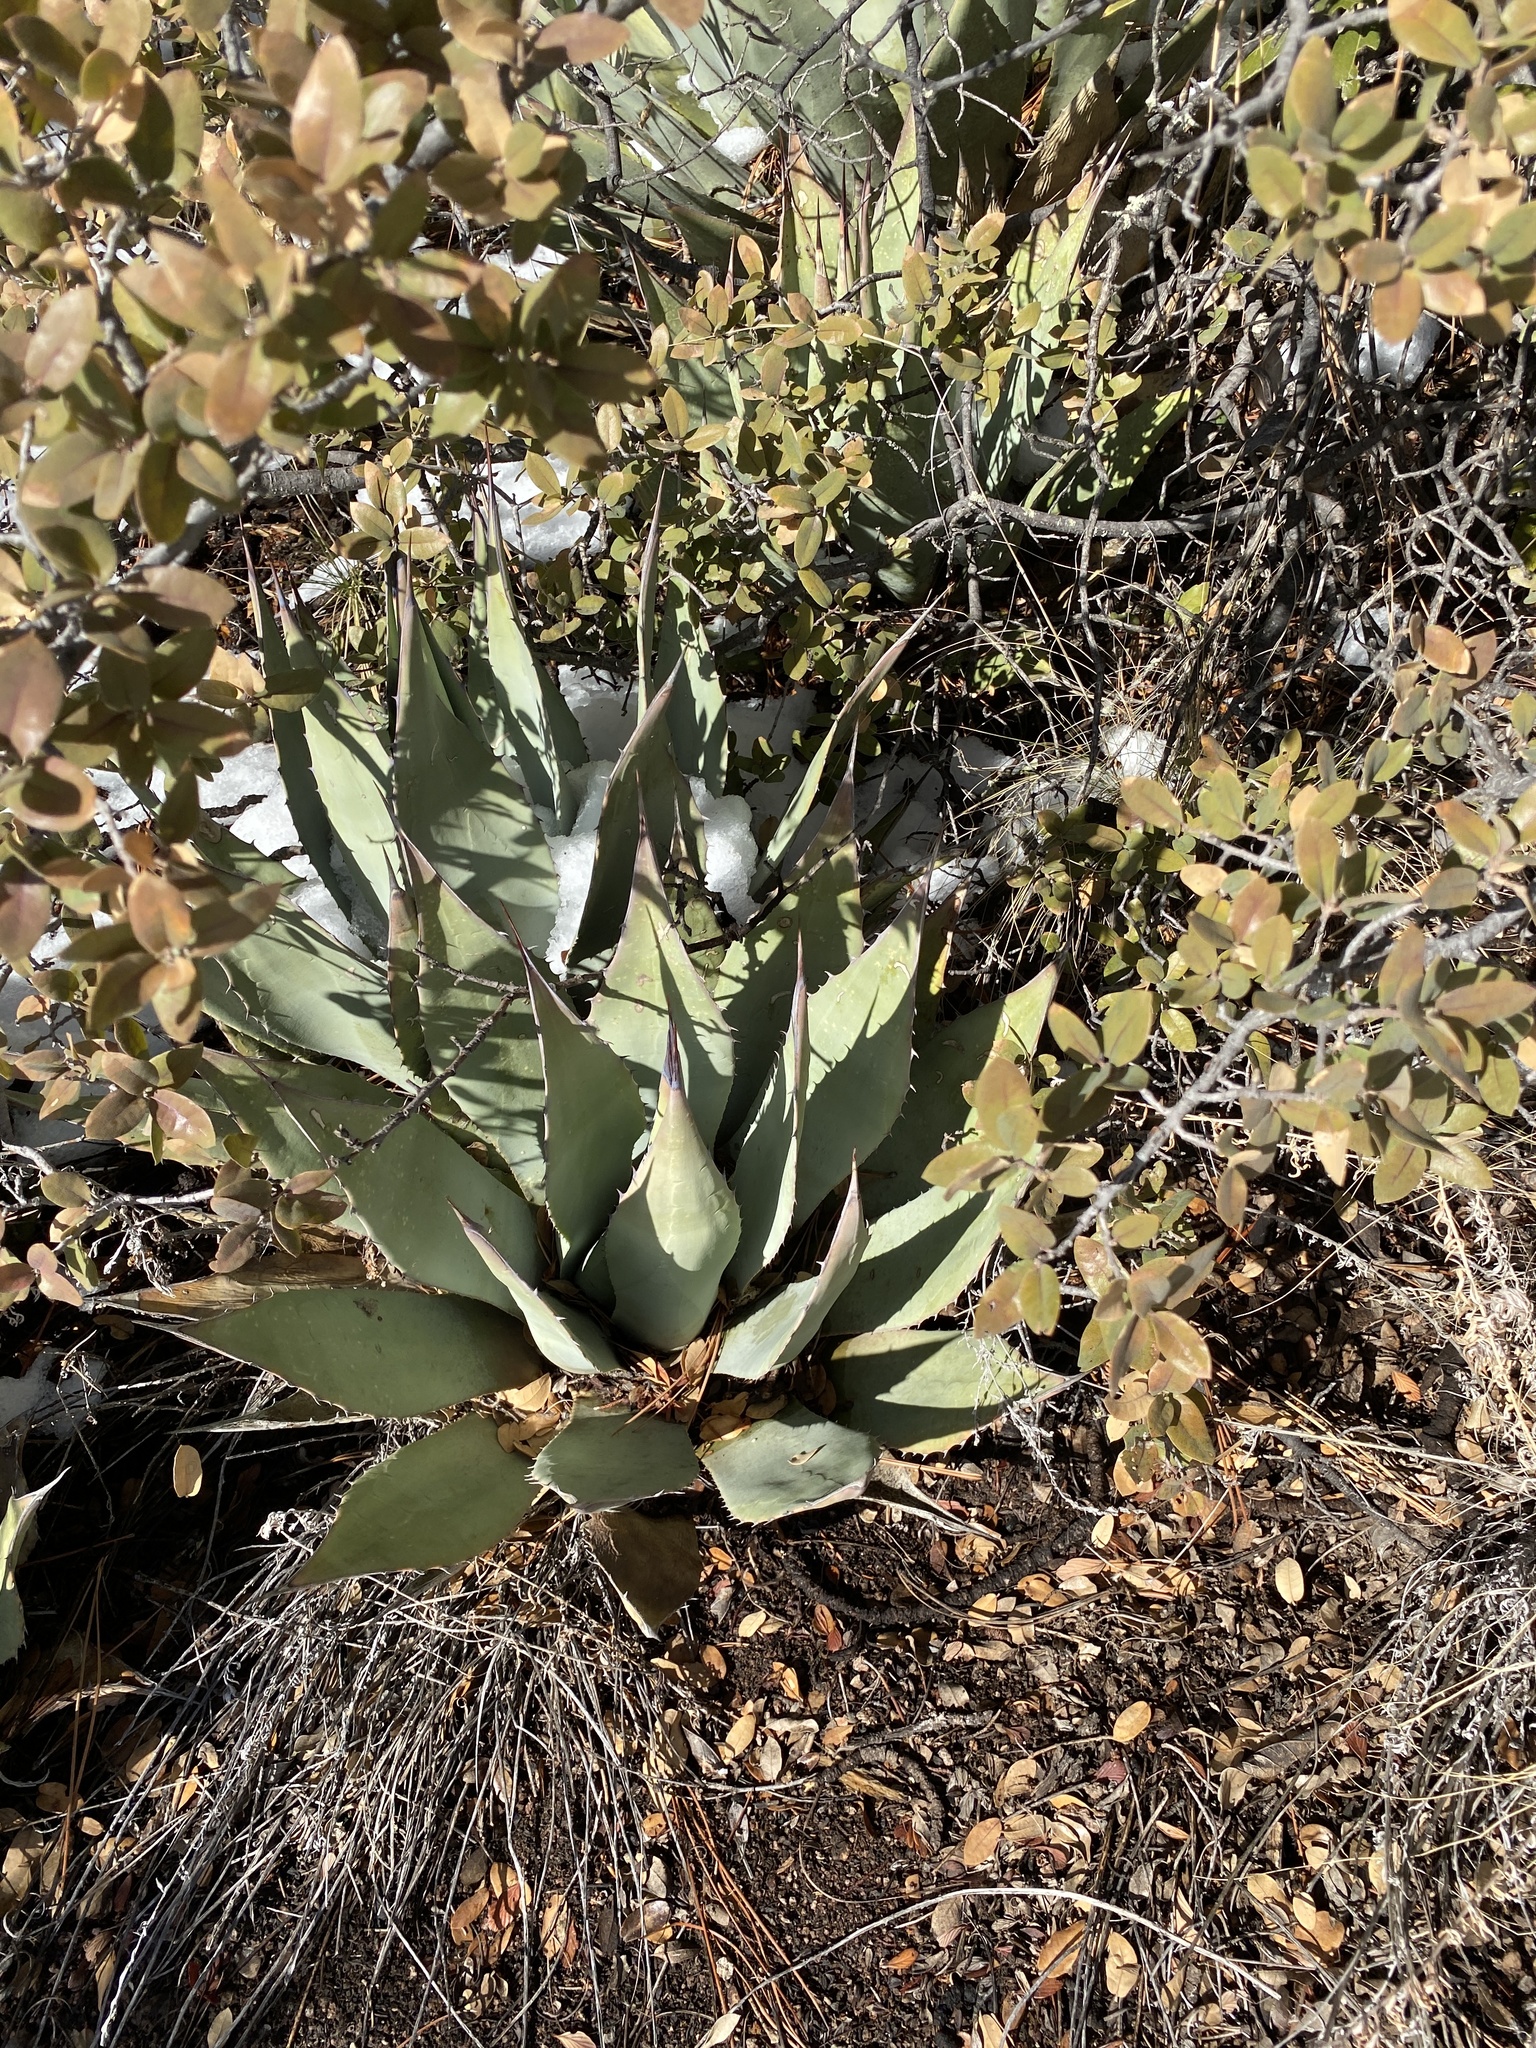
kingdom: Plantae
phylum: Tracheophyta
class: Liliopsida
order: Asparagales
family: Asparagaceae
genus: Agave
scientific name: Agave parryi
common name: Parry's agave
